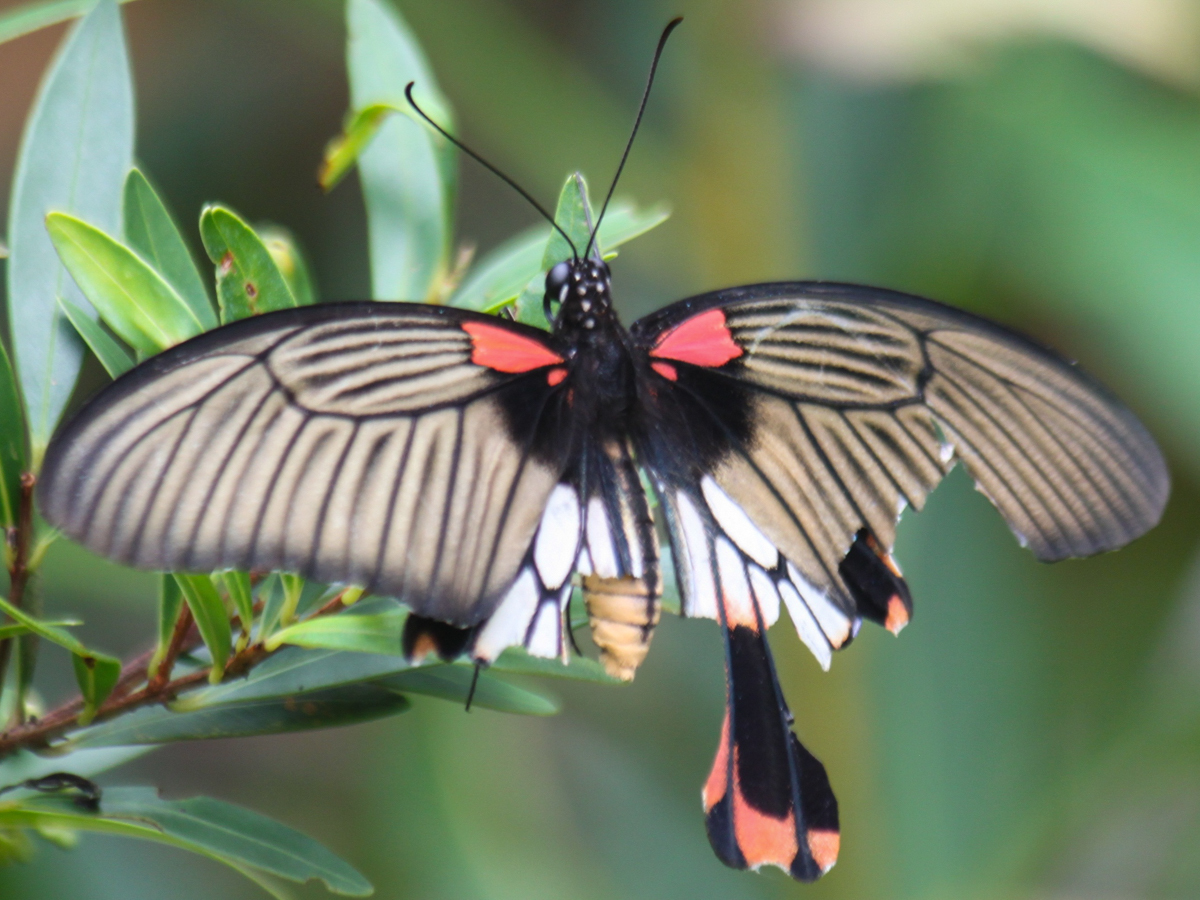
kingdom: Animalia
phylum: Arthropoda
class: Insecta
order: Lepidoptera
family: Papilionidae
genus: Papilio
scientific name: Papilio memnon
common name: Great mormon
